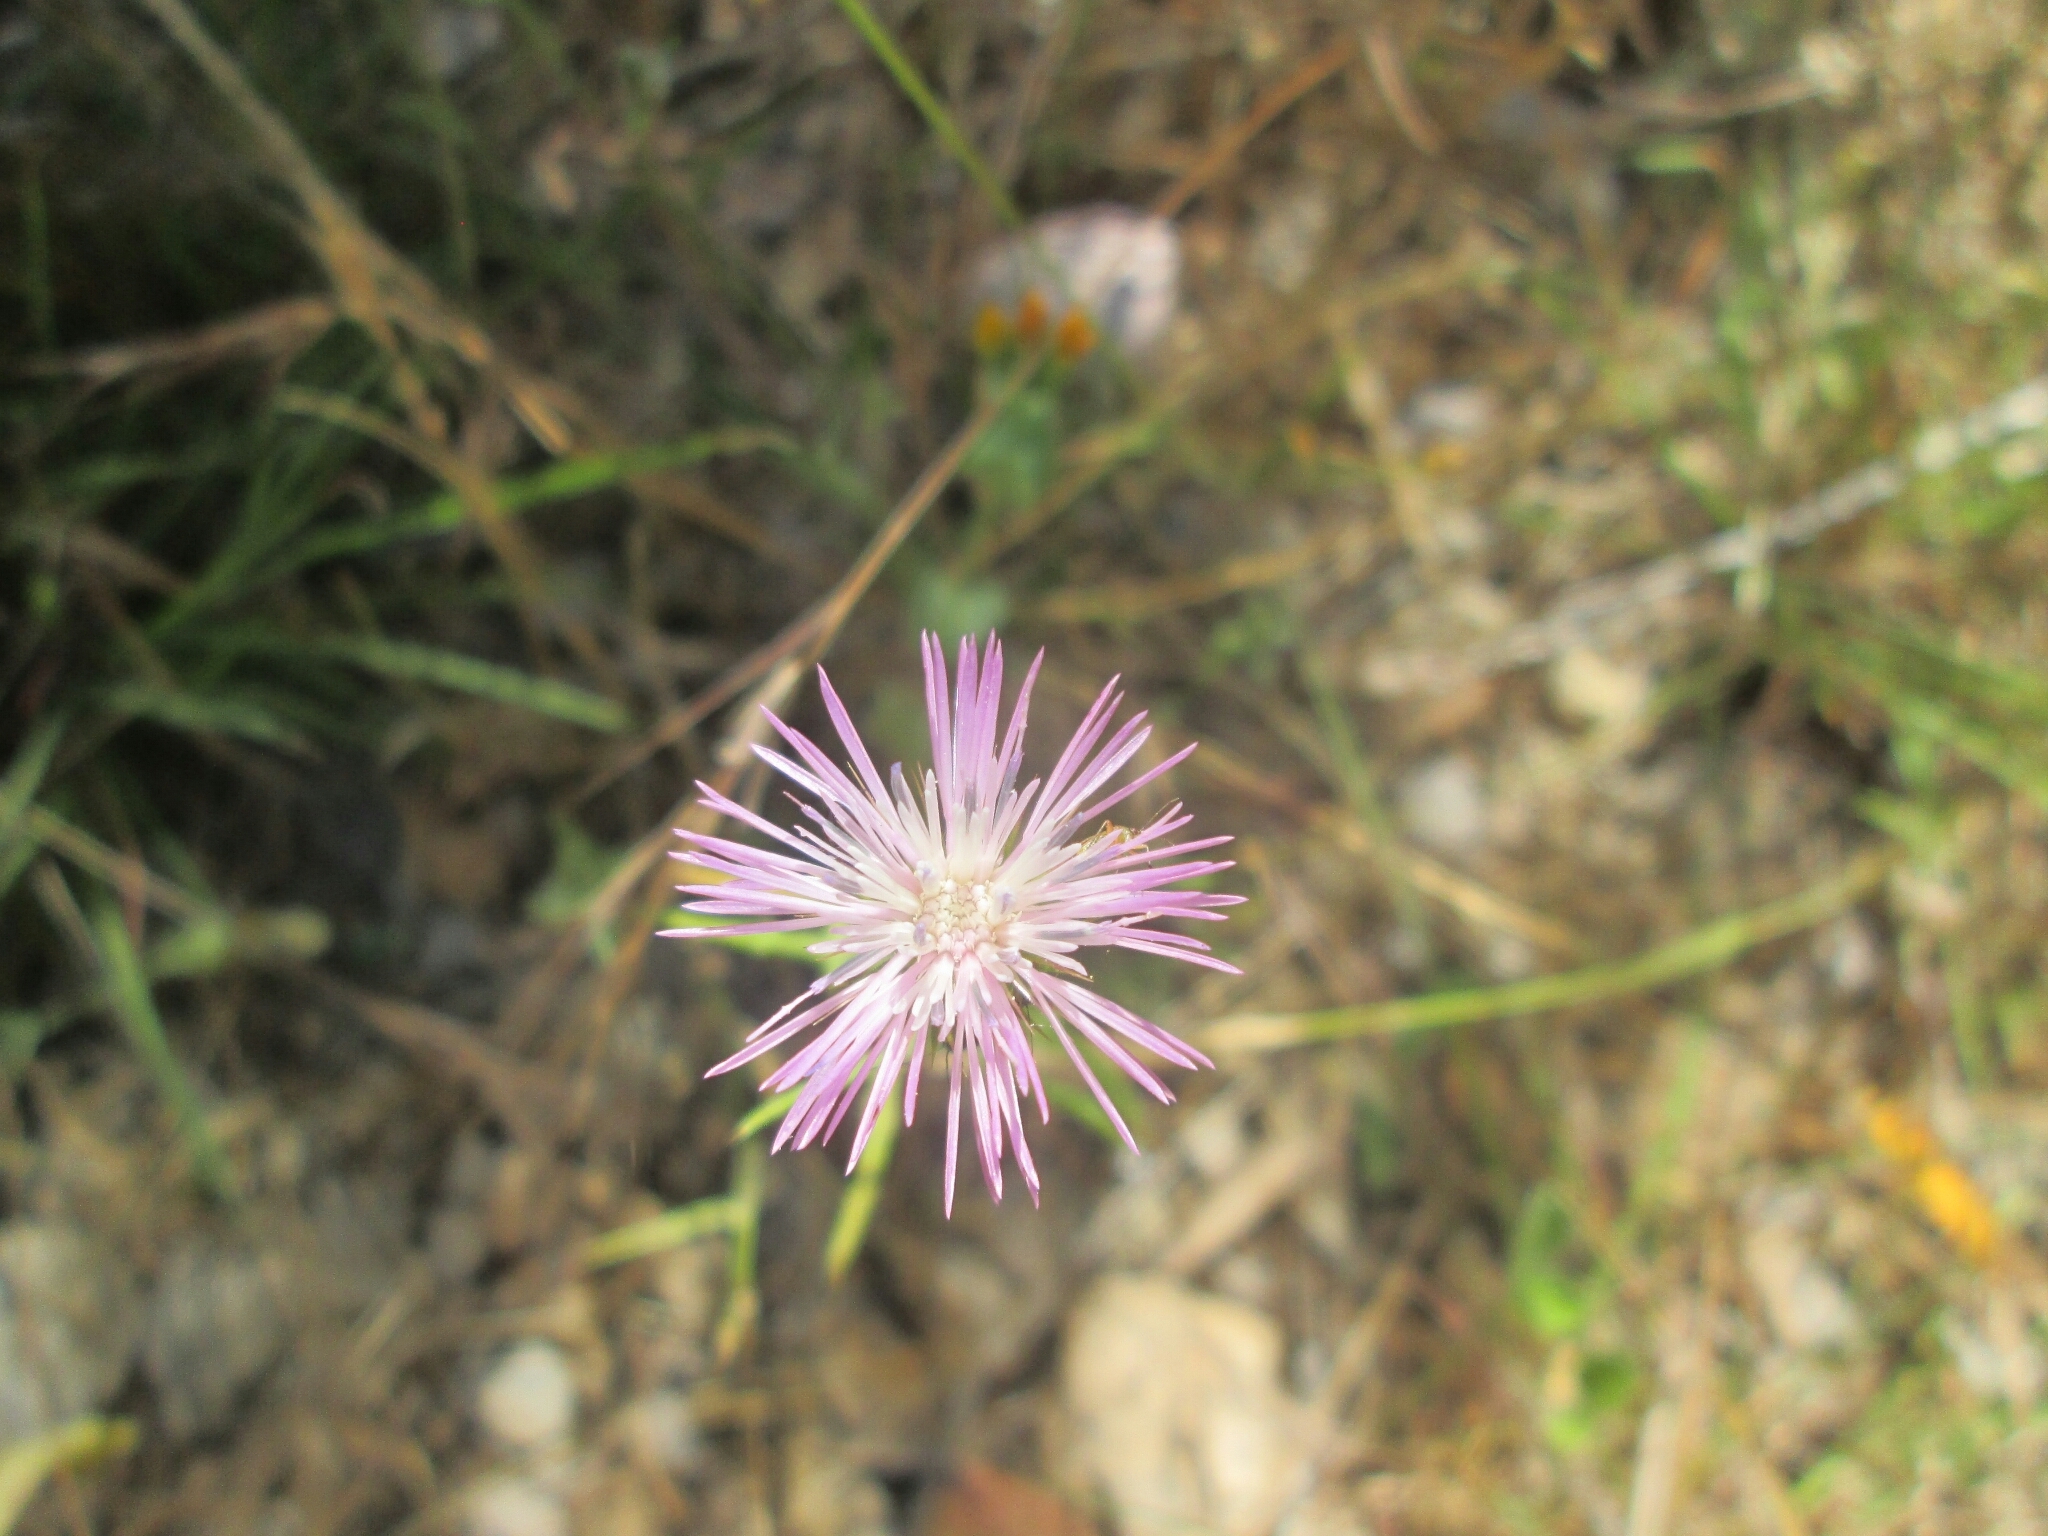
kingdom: Plantae
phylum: Tracheophyta
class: Magnoliopsida
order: Asterales
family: Asteraceae
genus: Galactites
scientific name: Galactites tomentosa
